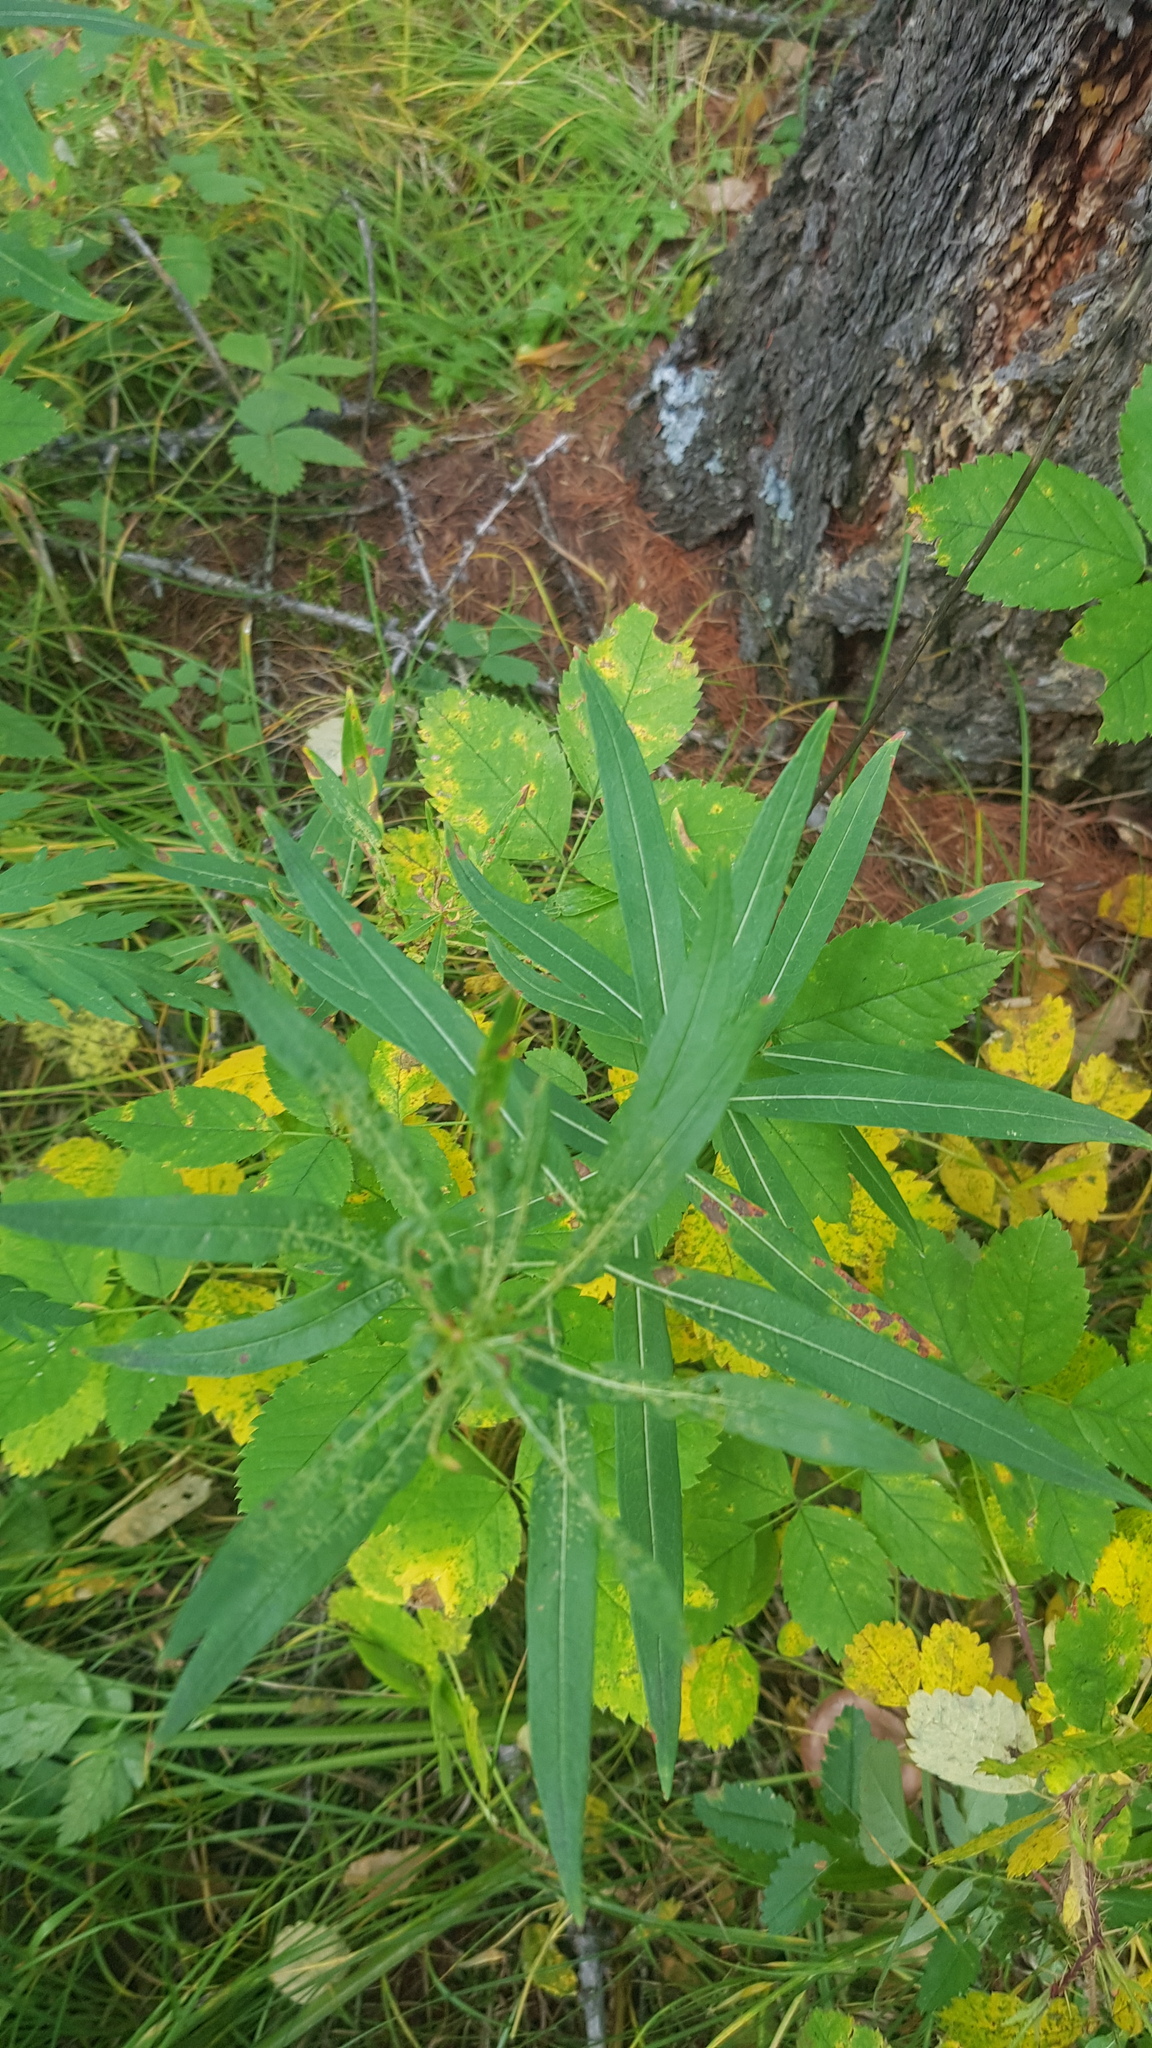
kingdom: Plantae
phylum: Tracheophyta
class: Magnoliopsida
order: Myrtales
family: Onagraceae
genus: Chamaenerion
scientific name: Chamaenerion angustifolium
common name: Fireweed
